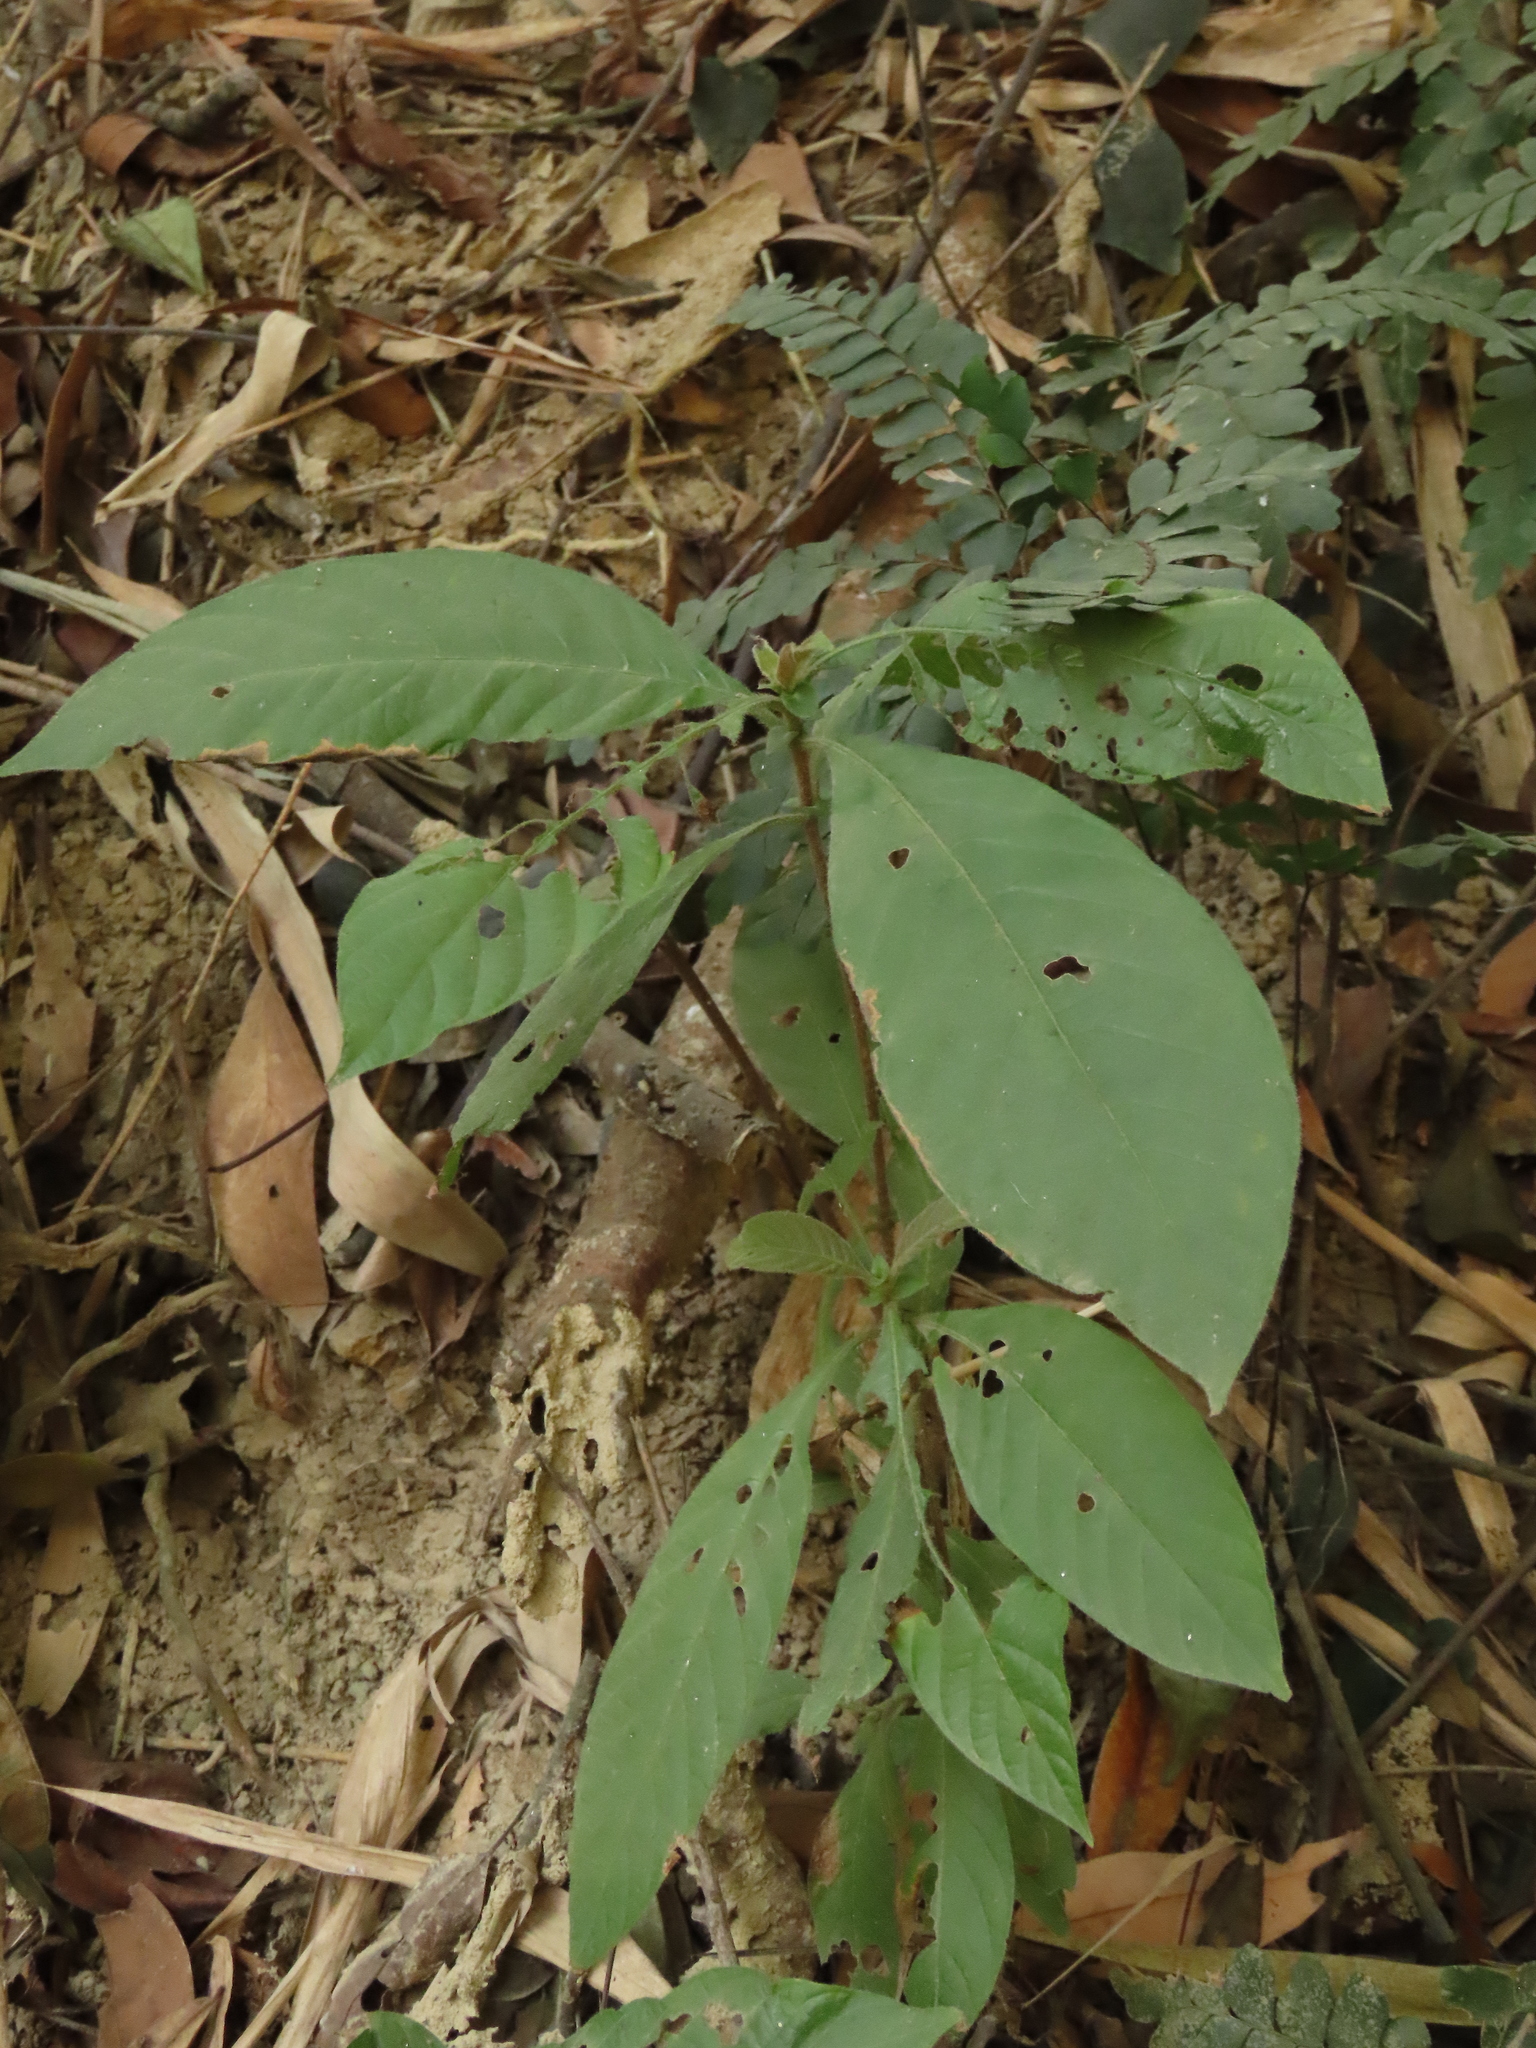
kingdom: Plantae
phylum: Tracheophyta
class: Magnoliopsida
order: Gentianales
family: Rubiaceae
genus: Wendlandia
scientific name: Wendlandia uvariifolia
